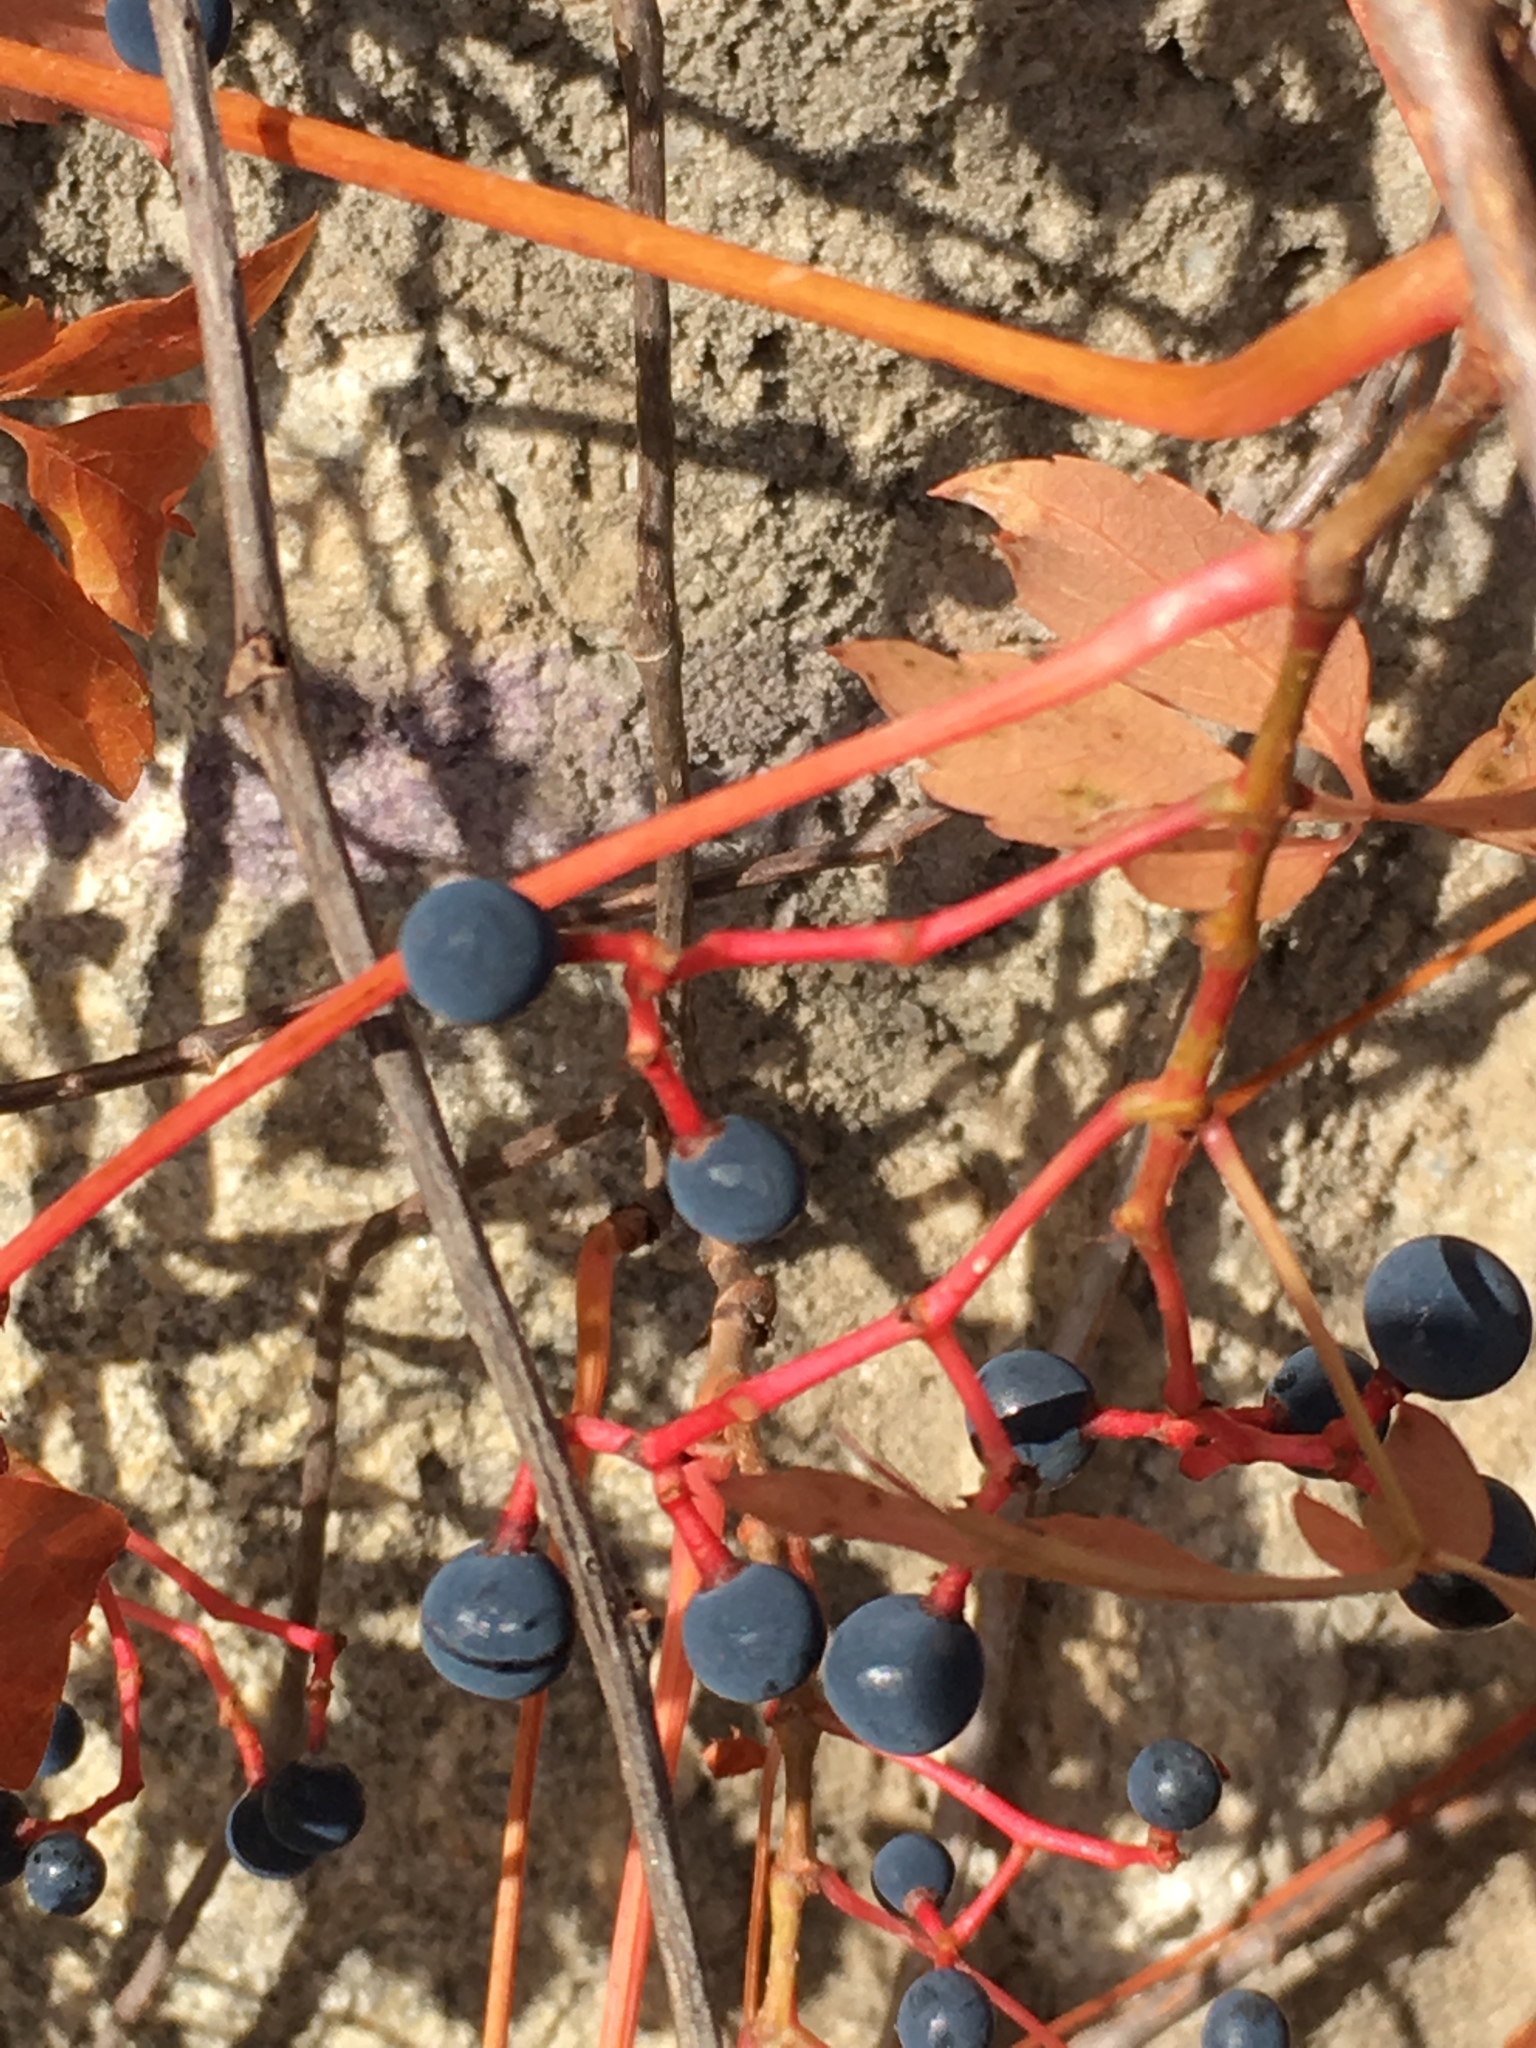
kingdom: Plantae
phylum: Tracheophyta
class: Magnoliopsida
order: Vitales
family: Vitaceae
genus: Parthenocissus
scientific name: Parthenocissus quinquefolia
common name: Virginia-creeper
